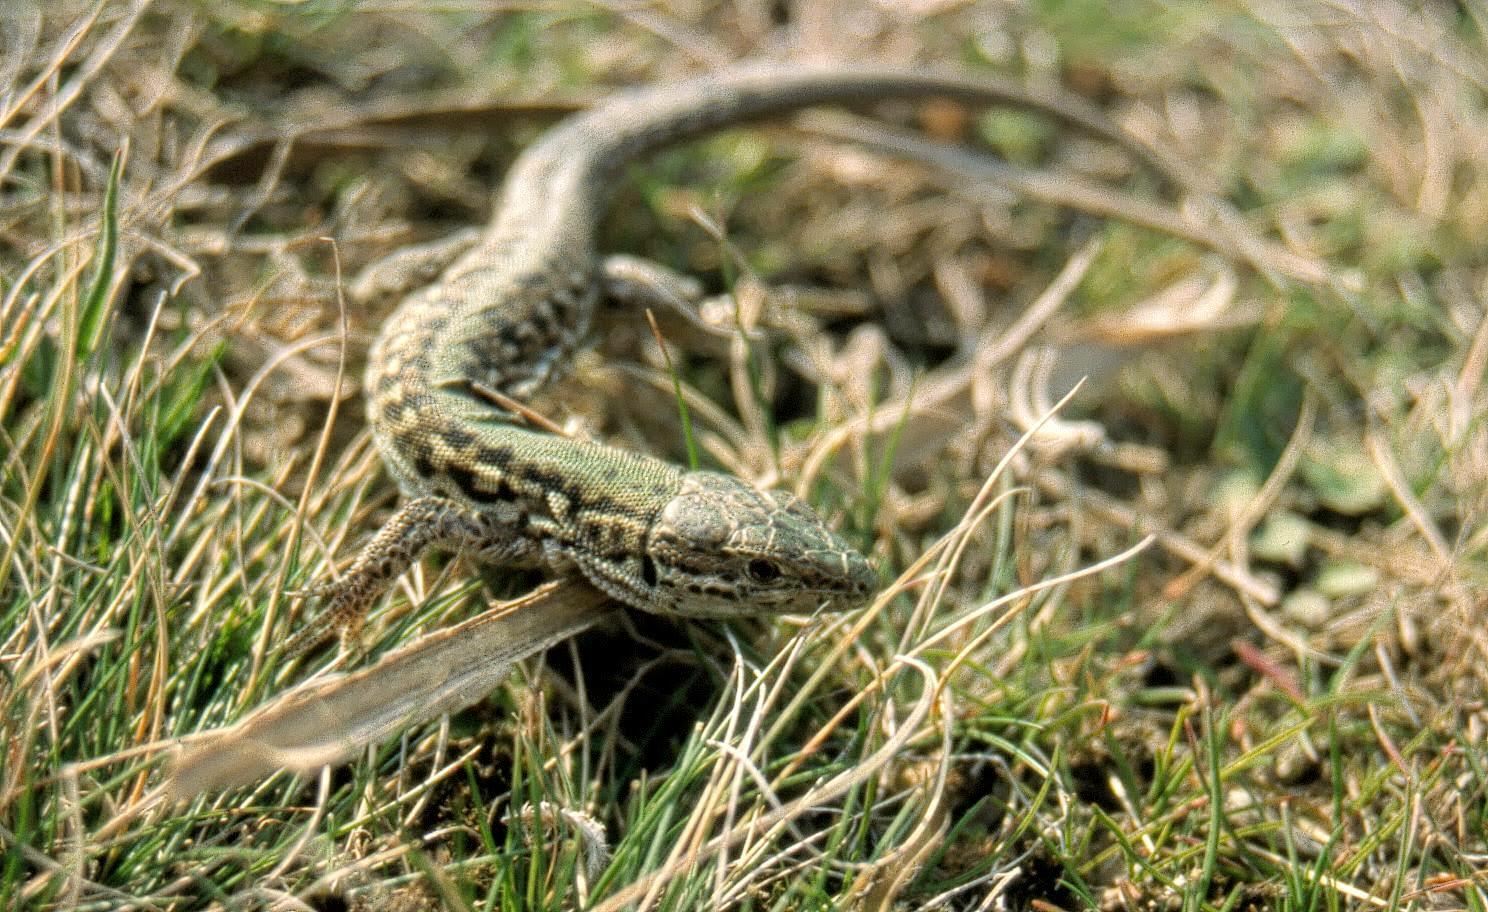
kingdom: Animalia
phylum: Chordata
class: Squamata
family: Lacertidae
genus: Podarcis
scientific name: Podarcis tauricus
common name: Balkan wall lizard
